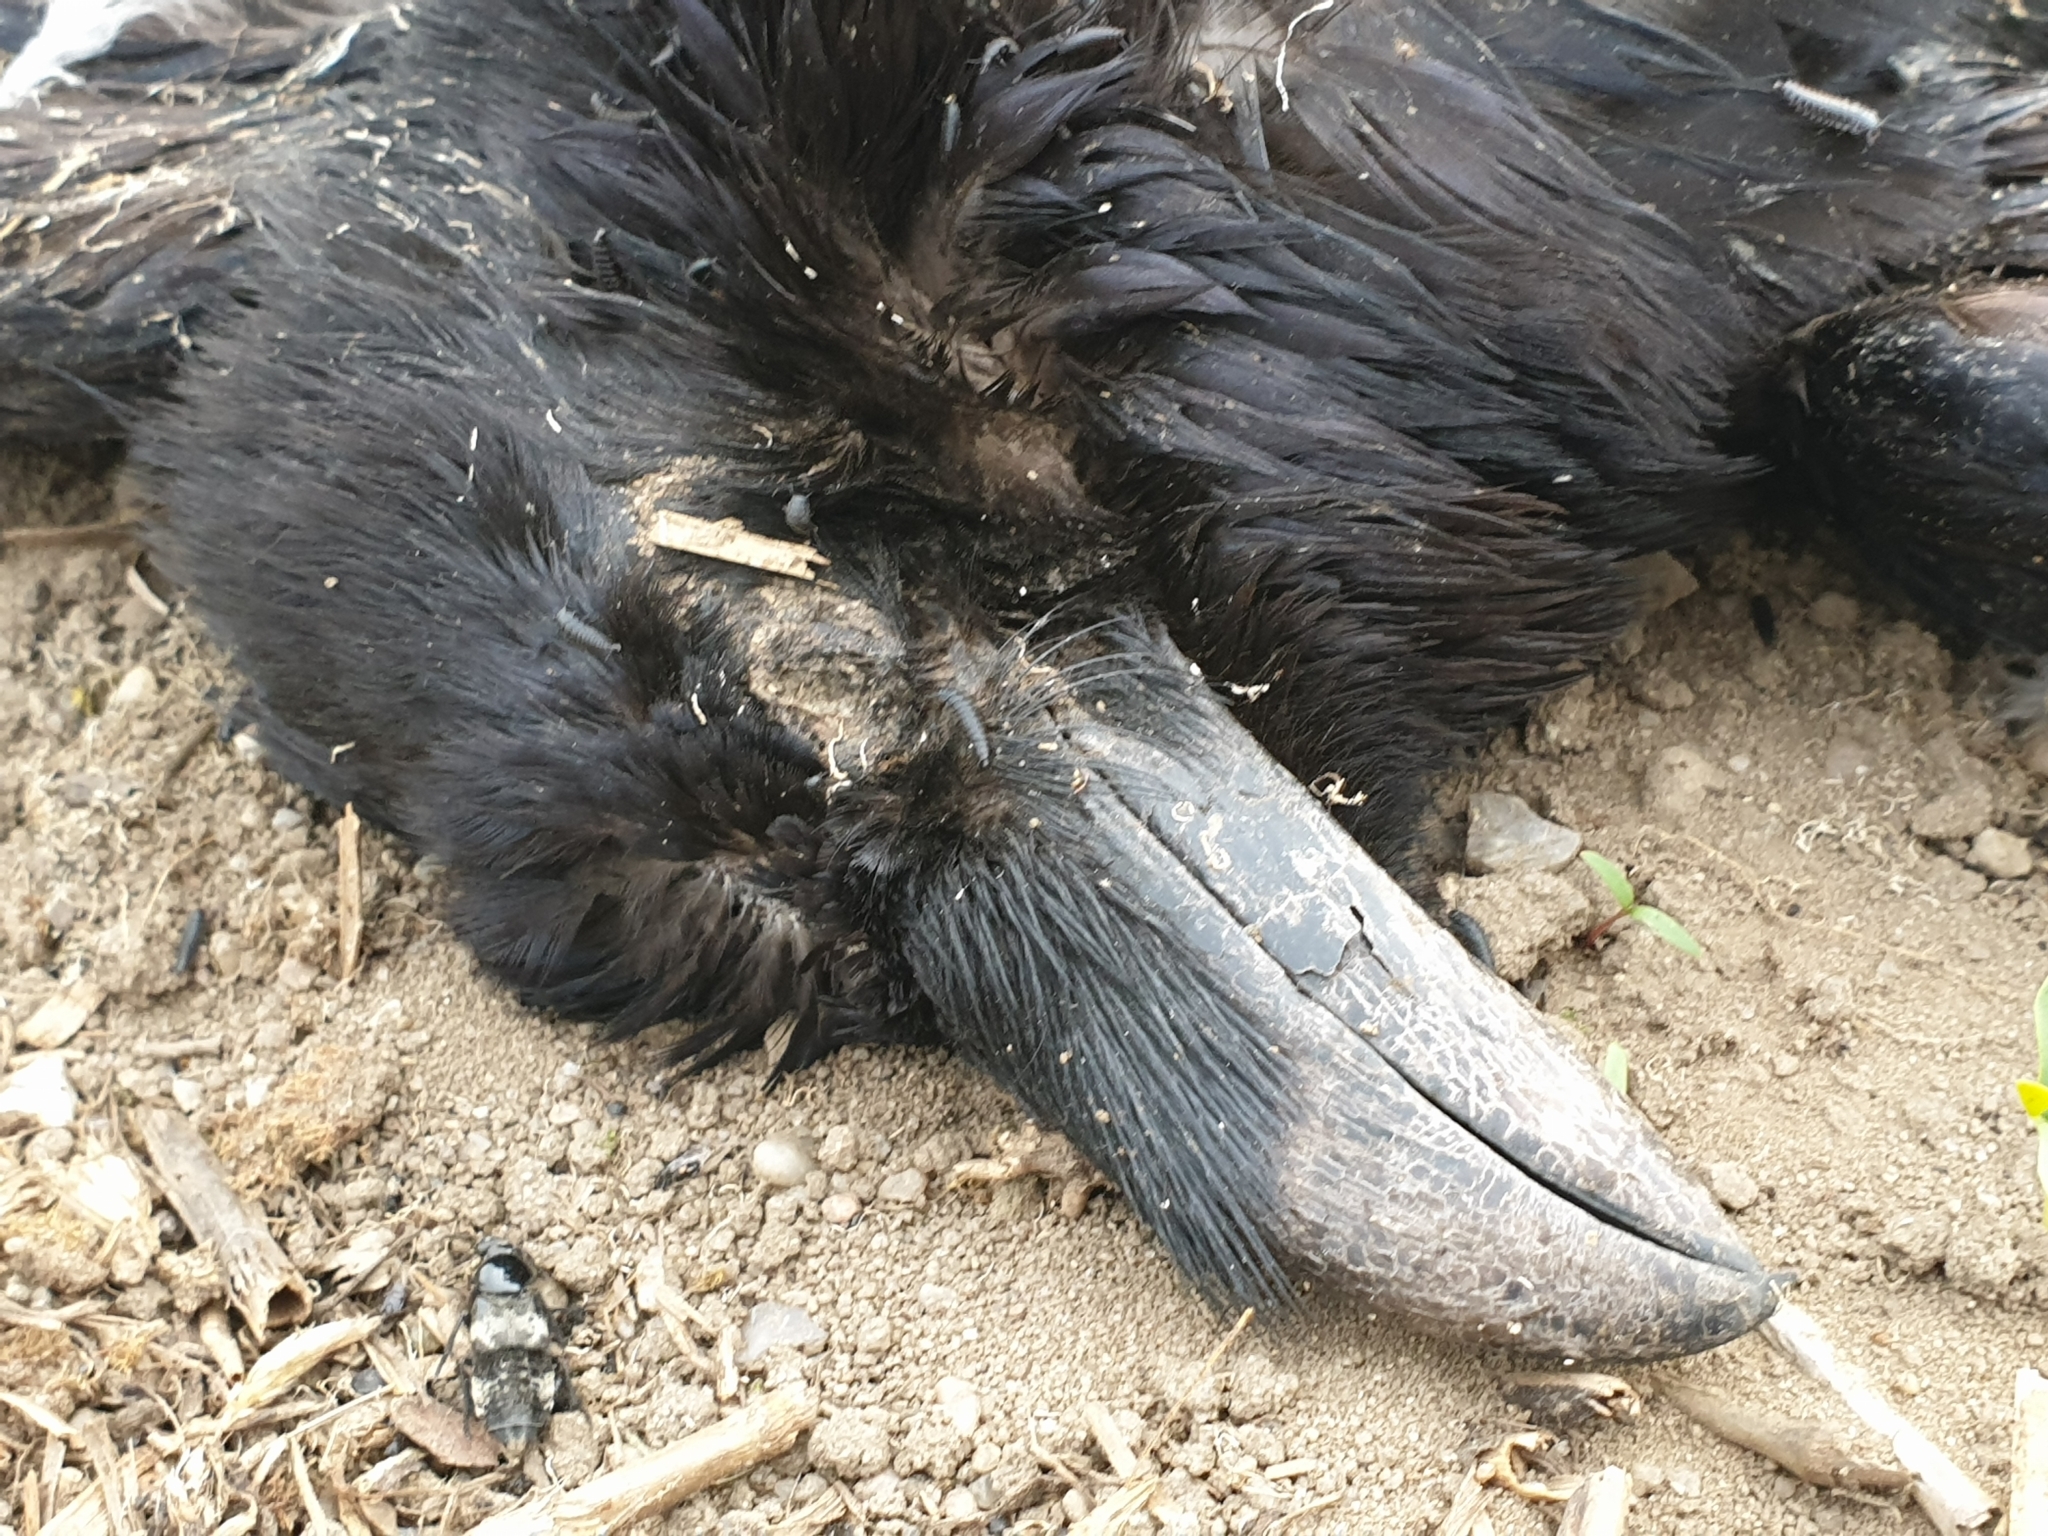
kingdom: Animalia
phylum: Chordata
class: Aves
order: Passeriformes
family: Corvidae
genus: Corvus
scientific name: Corvus corax
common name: Common raven
